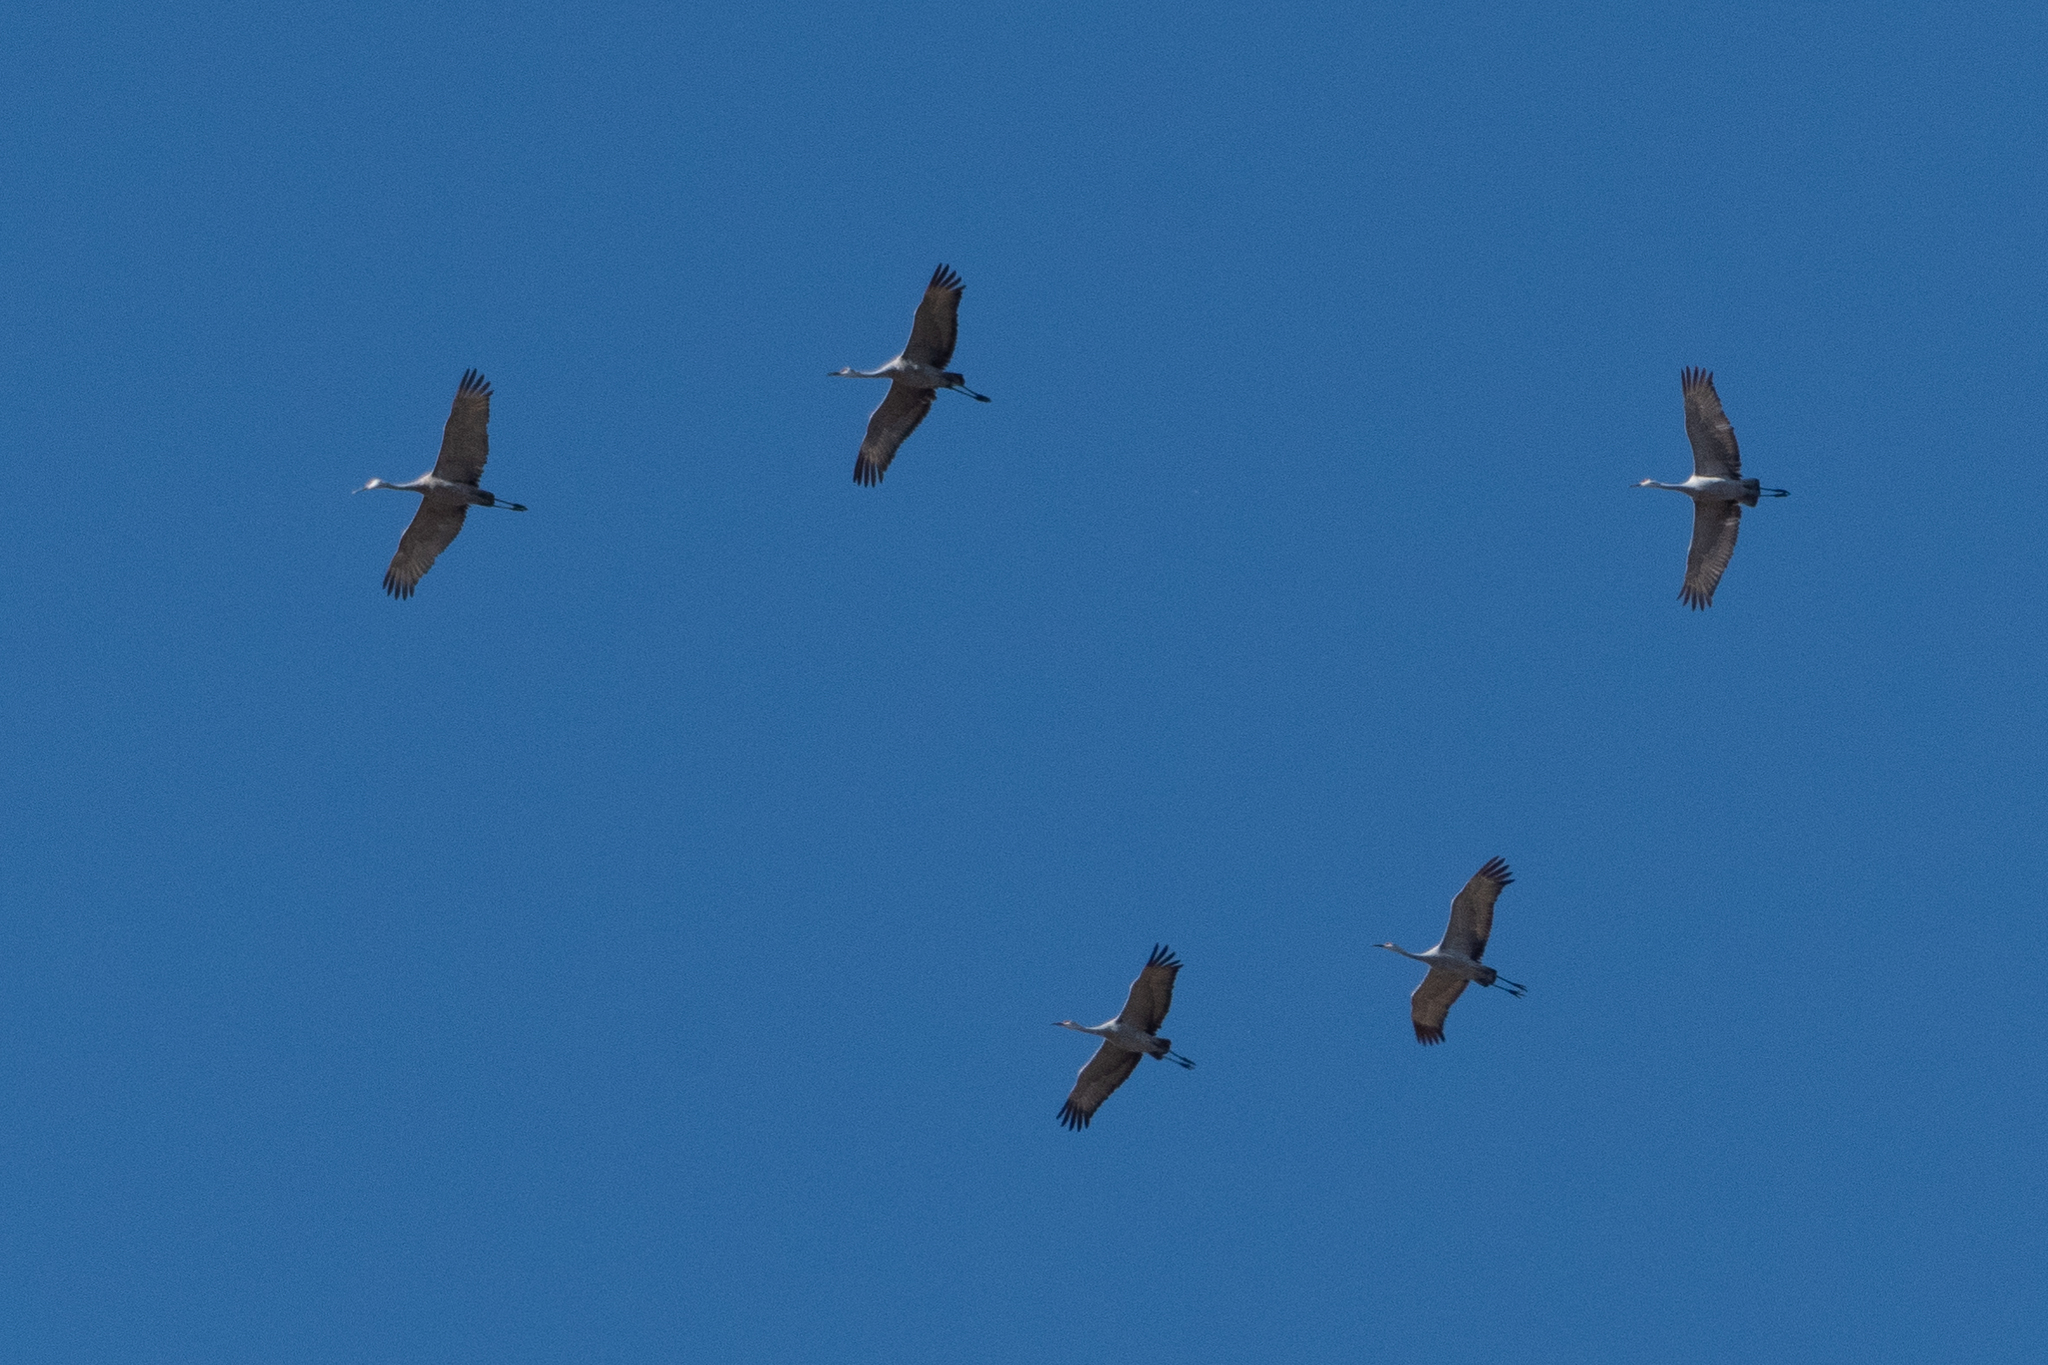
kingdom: Animalia
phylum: Chordata
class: Aves
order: Gruiformes
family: Gruidae
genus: Grus
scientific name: Grus canadensis
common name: Sandhill crane
